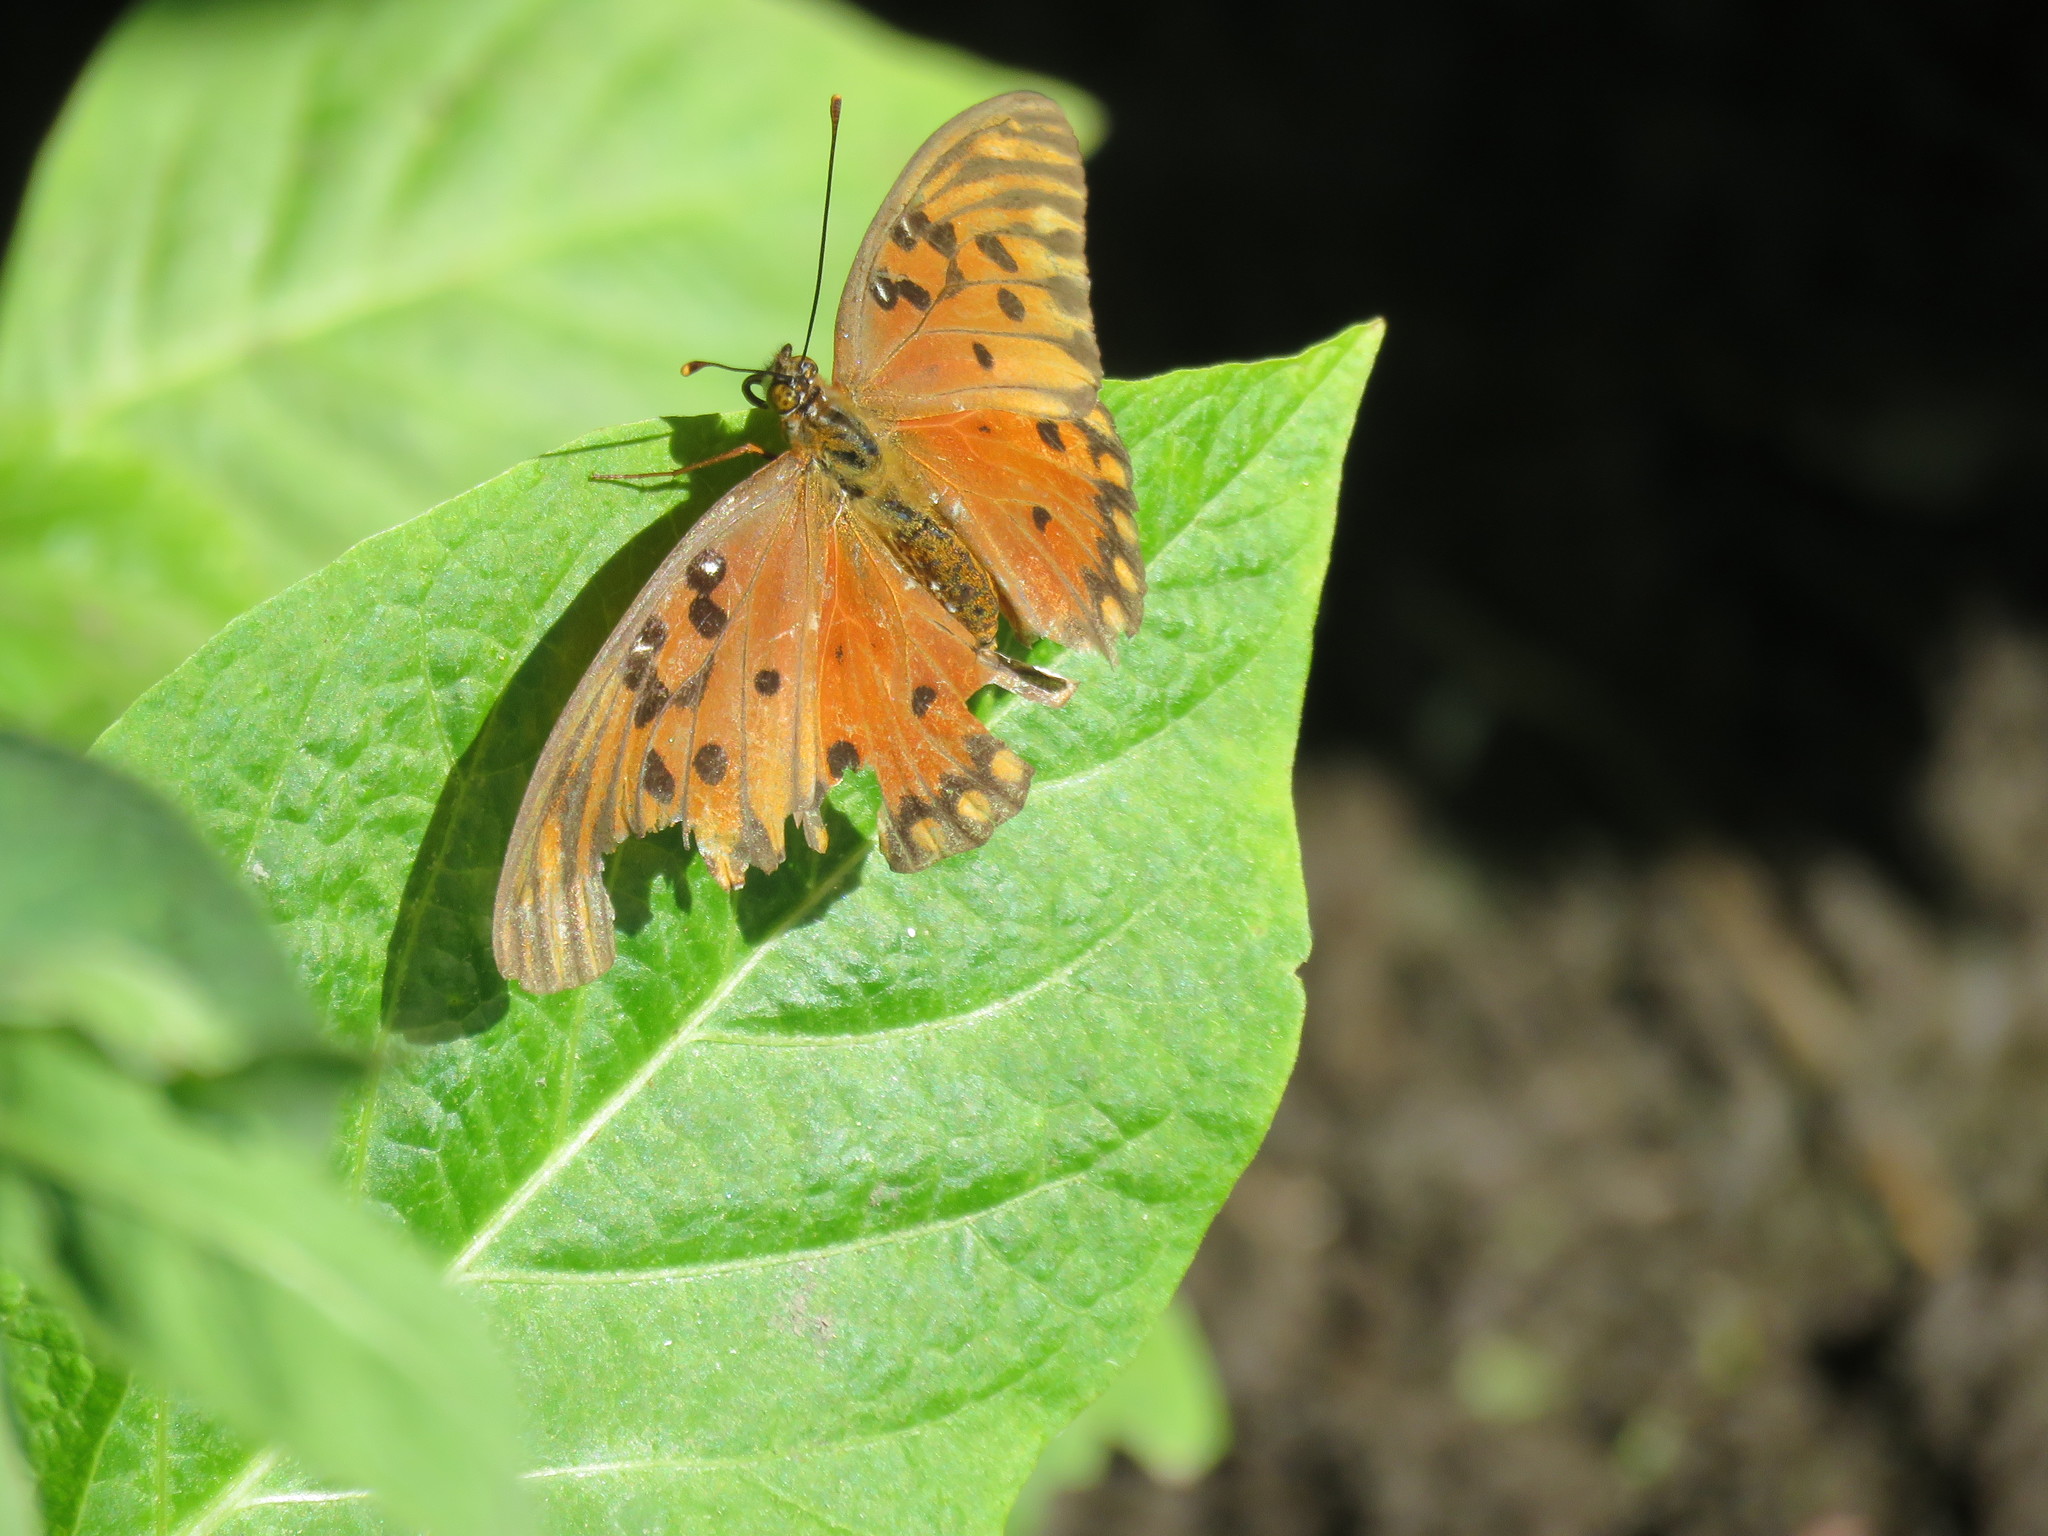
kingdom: Animalia
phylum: Arthropoda
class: Insecta
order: Lepidoptera
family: Nymphalidae
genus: Dione
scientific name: Dione vanillae
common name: Gulf fritillary
